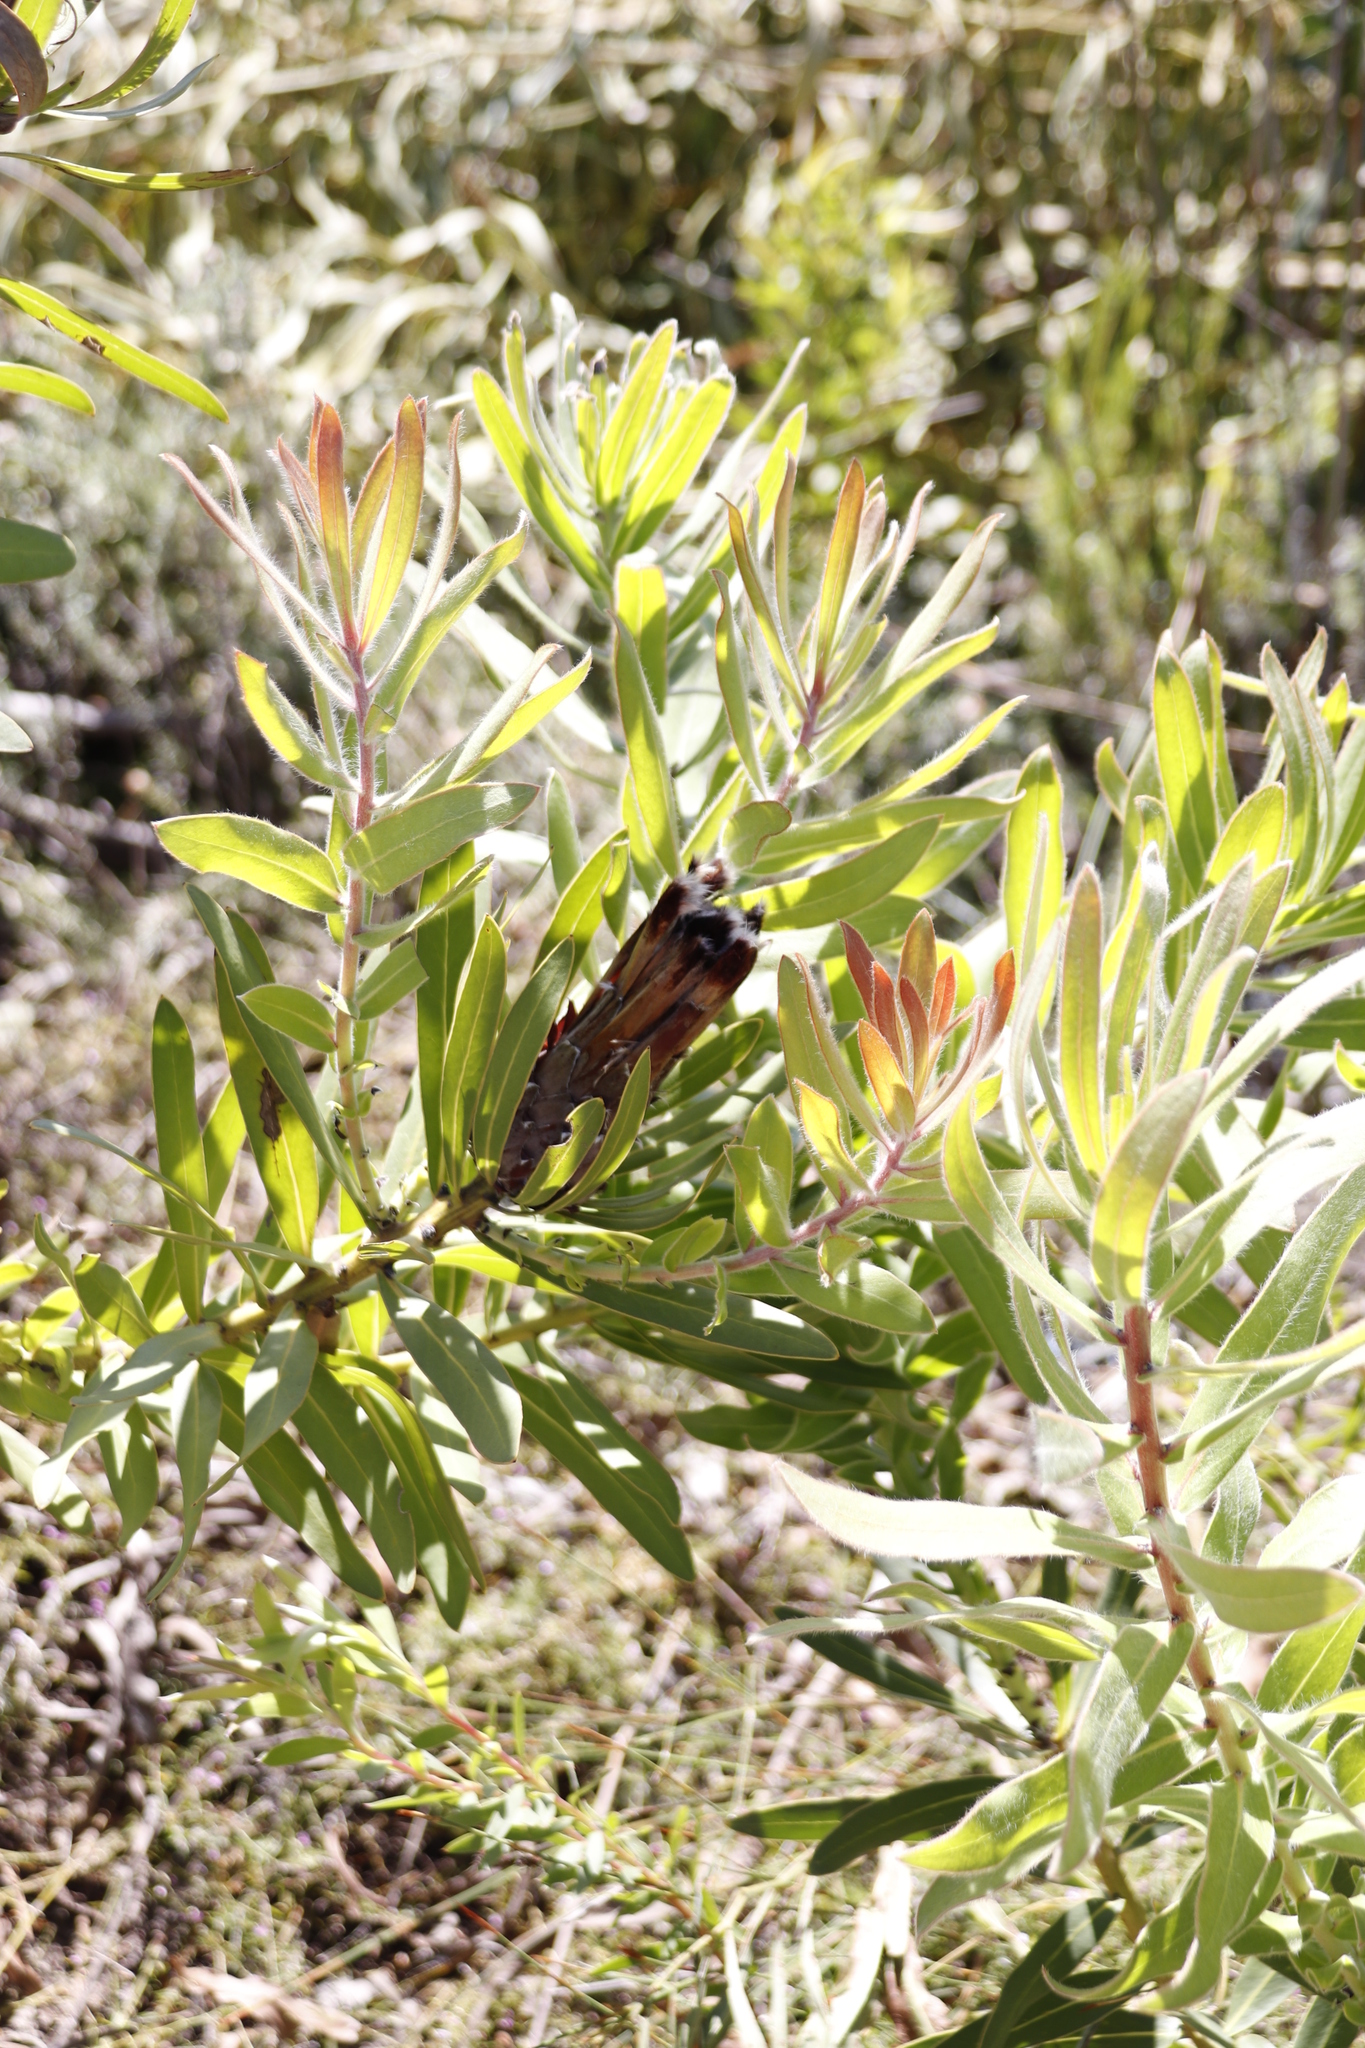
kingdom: Plantae
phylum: Tracheophyta
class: Magnoliopsida
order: Proteales
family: Proteaceae
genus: Protea
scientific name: Protea lepidocarpodendron
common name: Black-bearded protea
